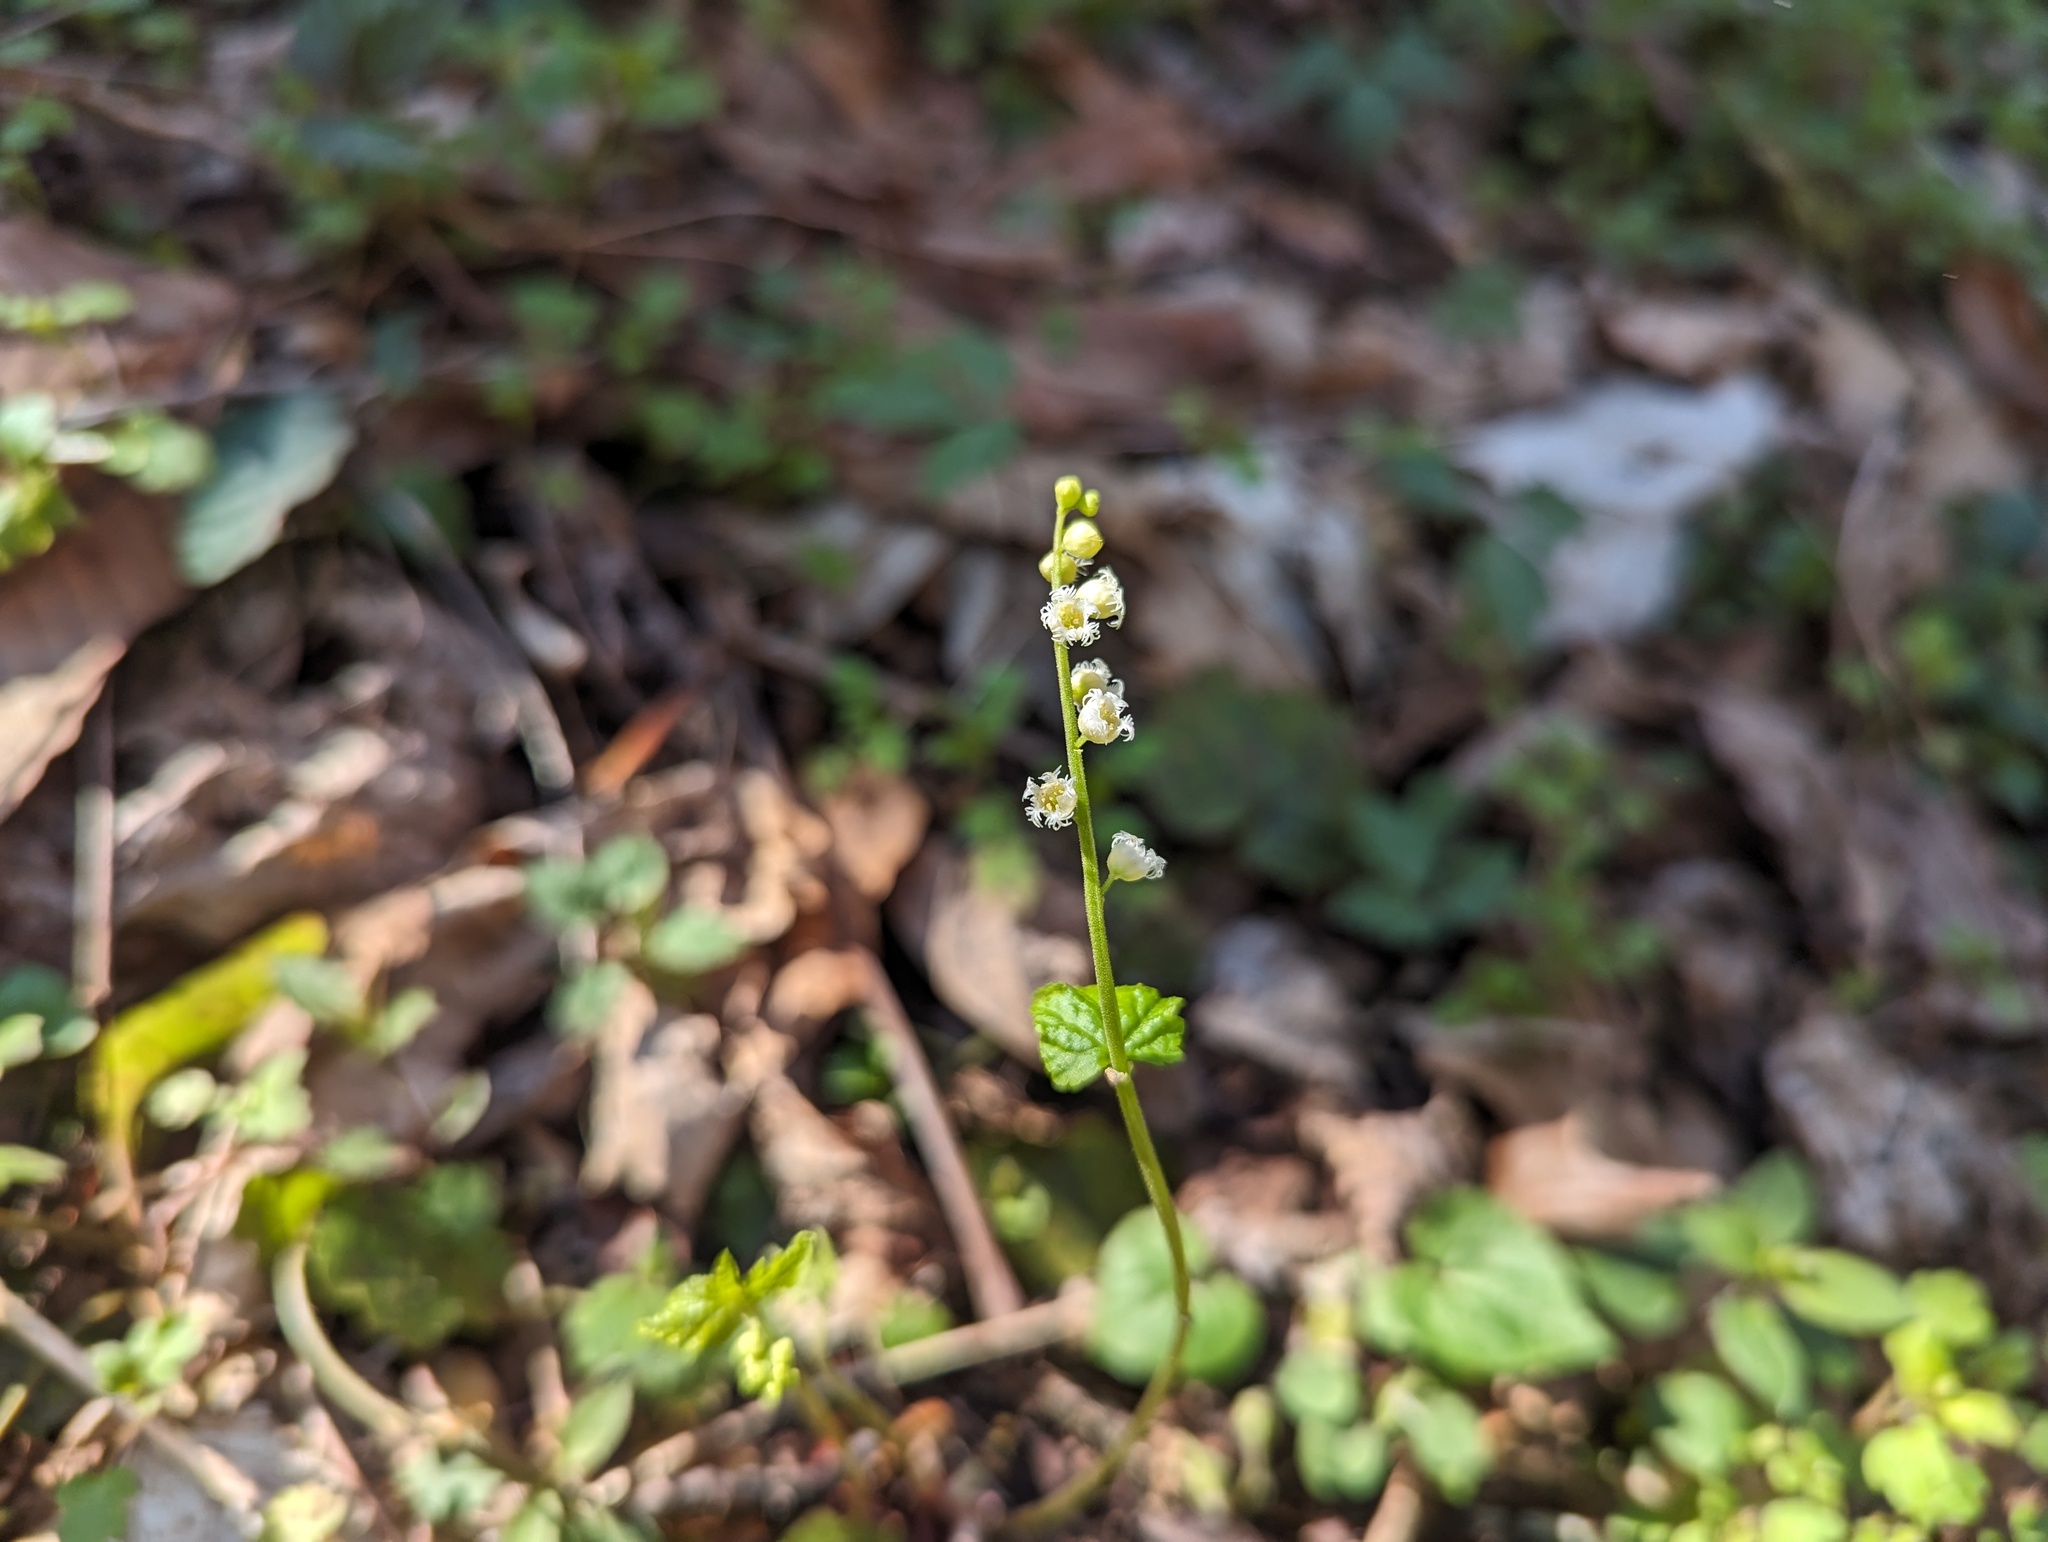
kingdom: Plantae
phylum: Tracheophyta
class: Magnoliopsida
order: Saxifragales
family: Saxifragaceae
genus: Mitella
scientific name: Mitella diphylla
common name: Coolwort
